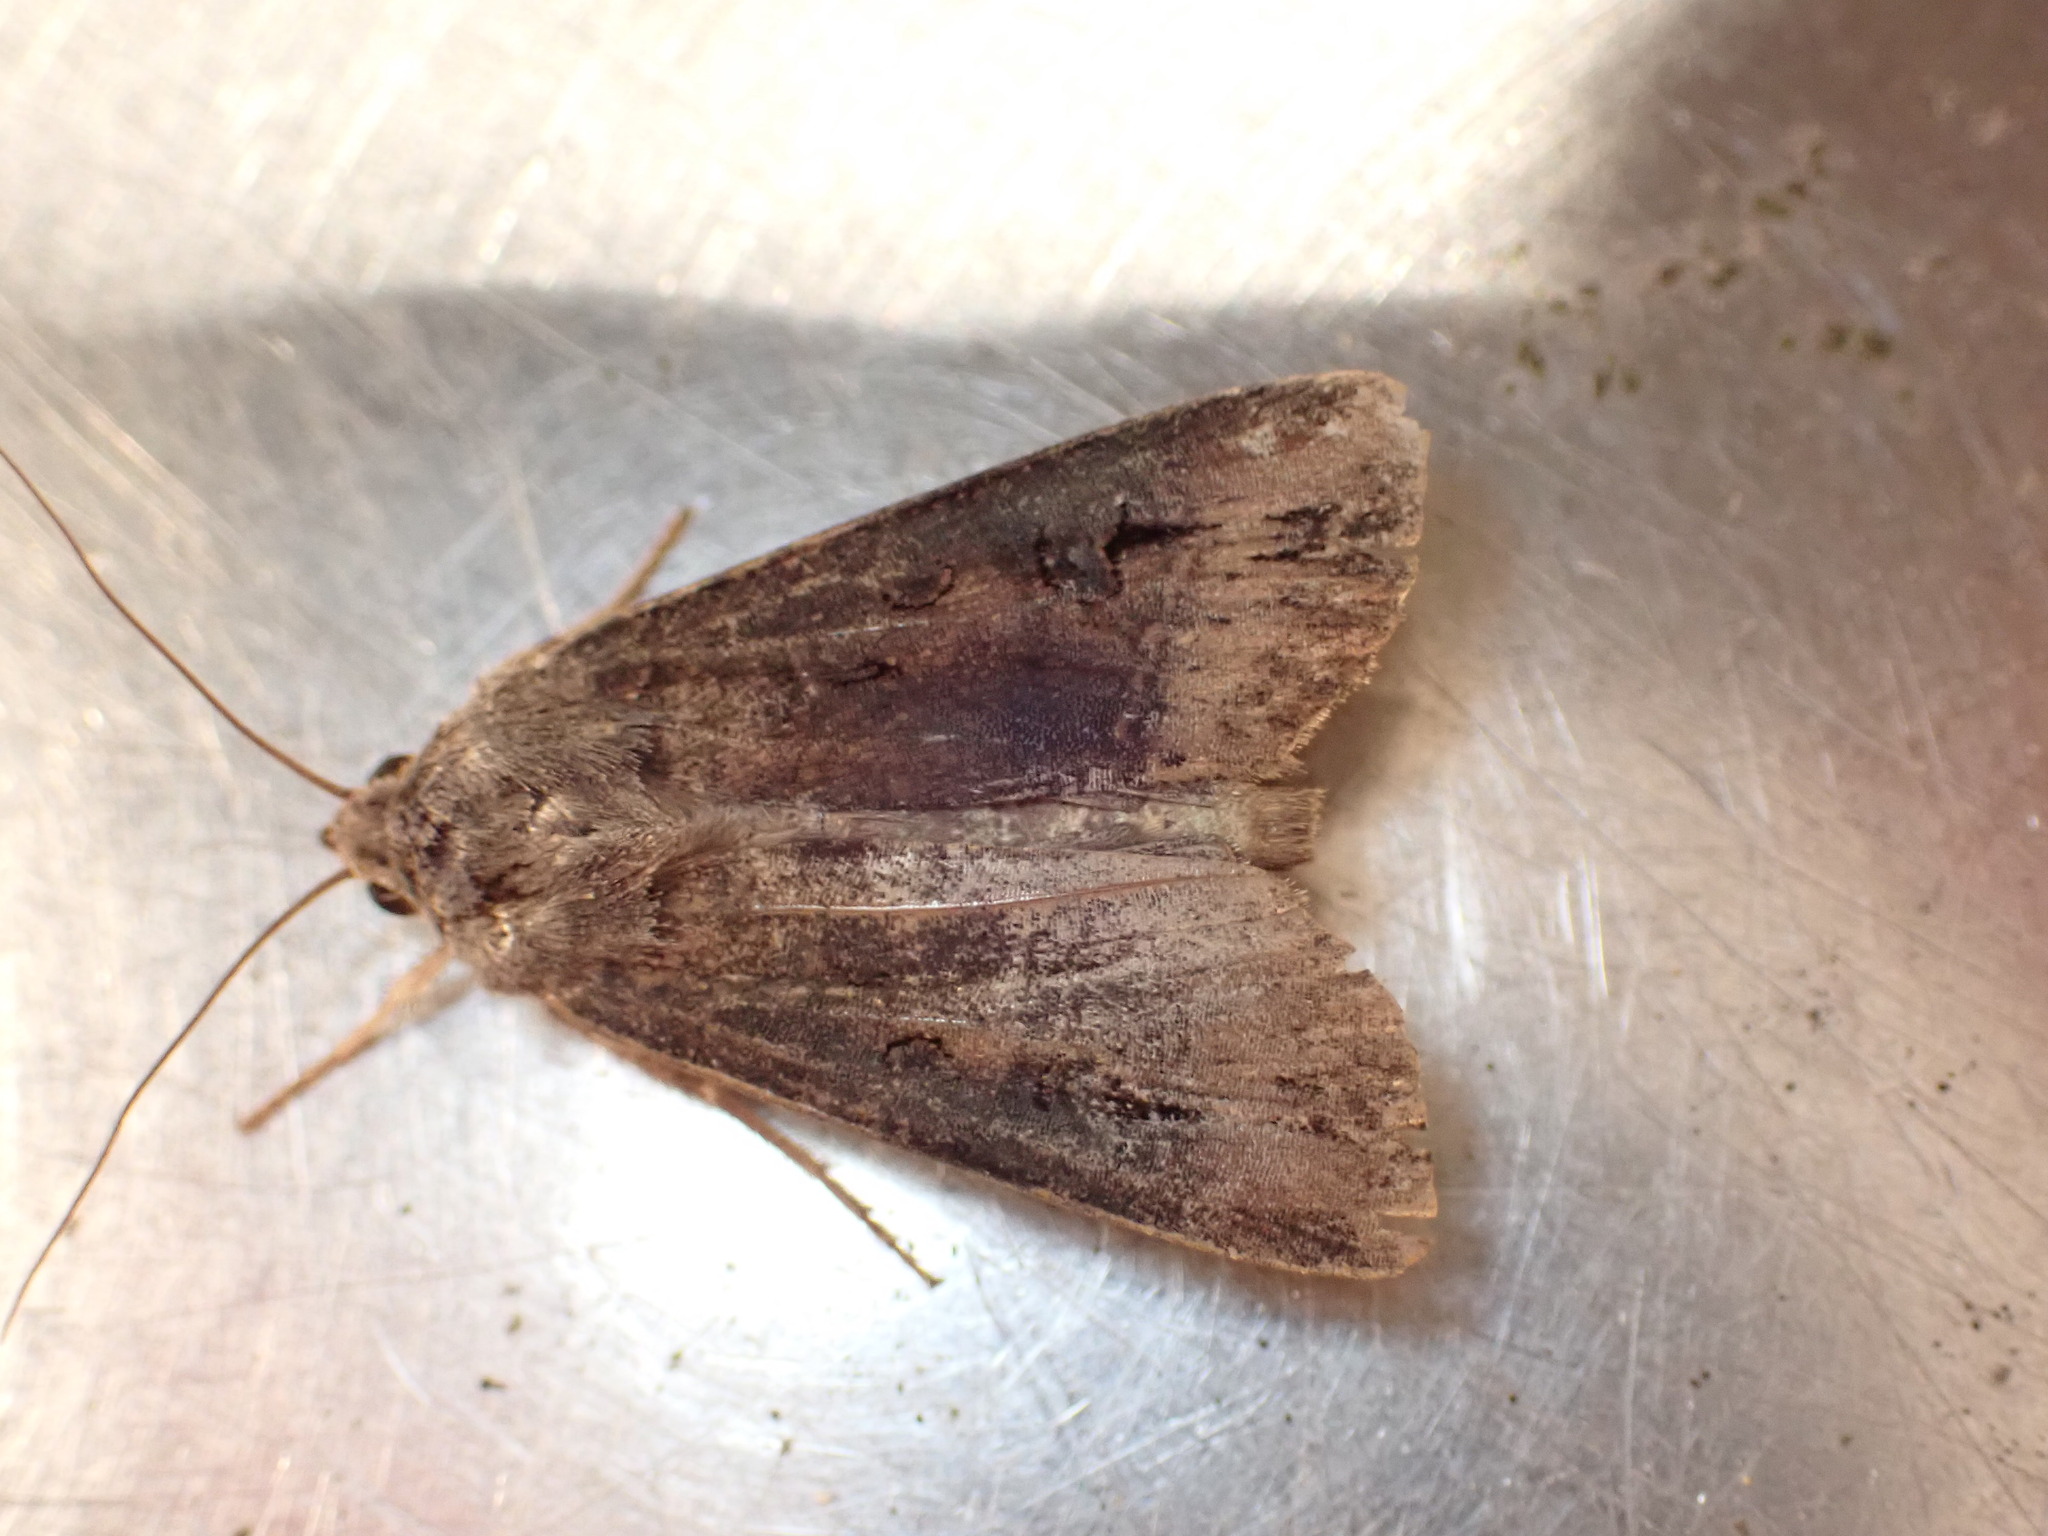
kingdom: Animalia
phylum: Arthropoda
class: Insecta
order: Lepidoptera
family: Noctuidae
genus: Agrotis
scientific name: Agrotis ipsilon
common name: Dark sword-grass
